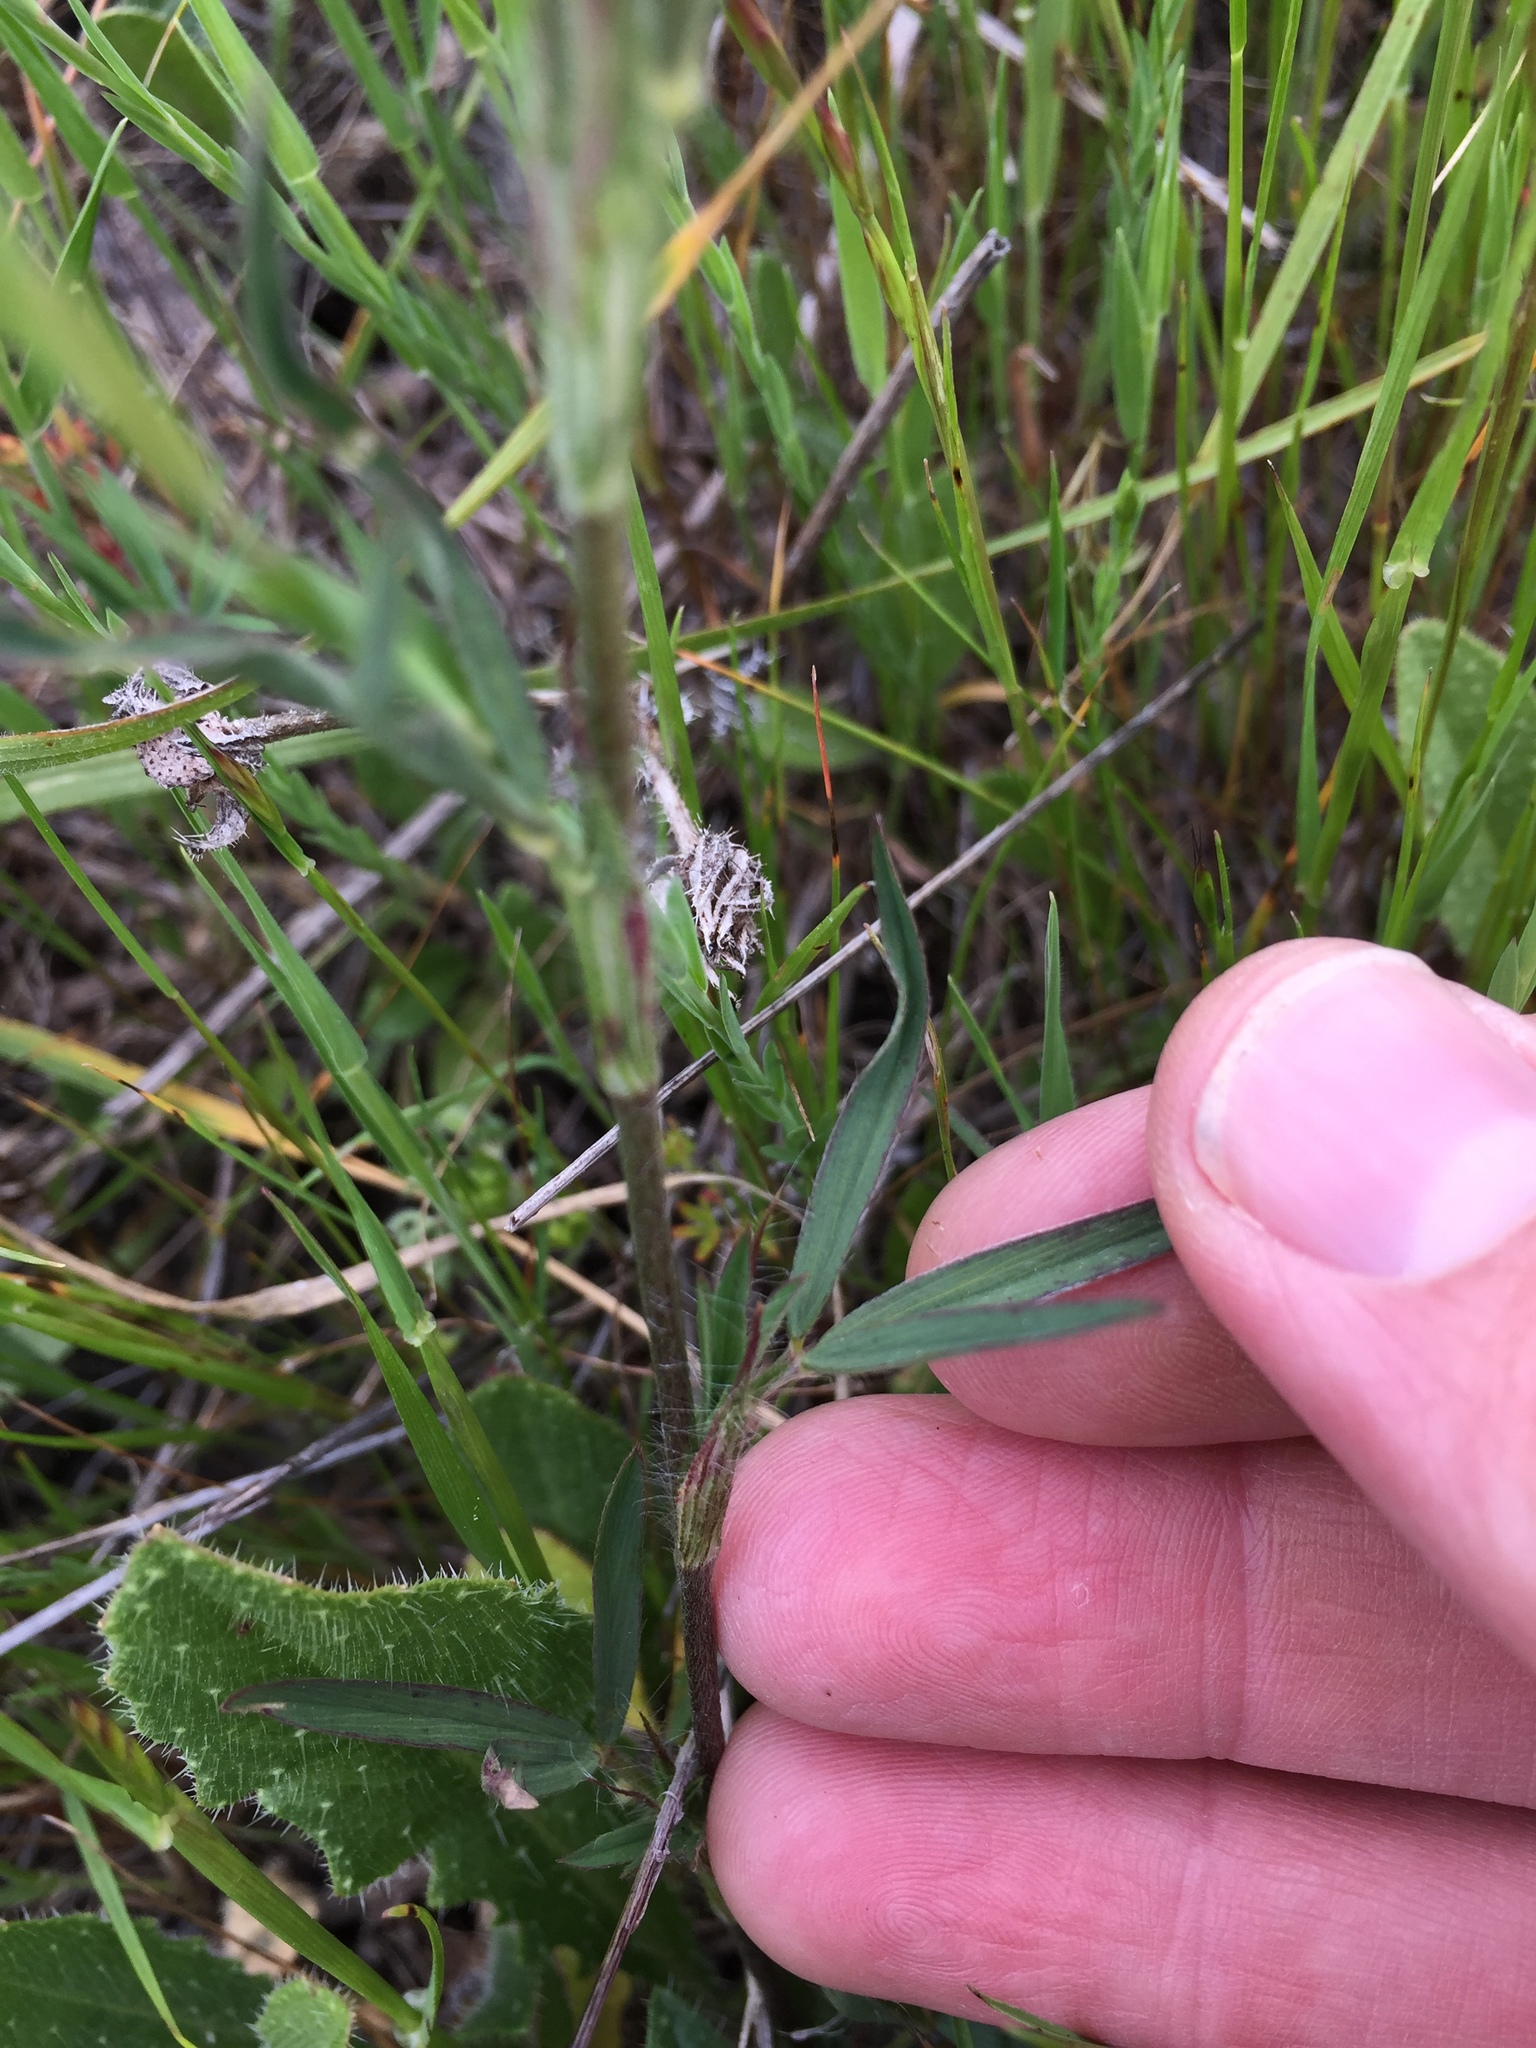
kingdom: Plantae
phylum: Tracheophyta
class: Magnoliopsida
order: Fabales
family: Fabaceae
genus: Trifolium
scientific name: Trifolium angustifolium
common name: Narrow clover
